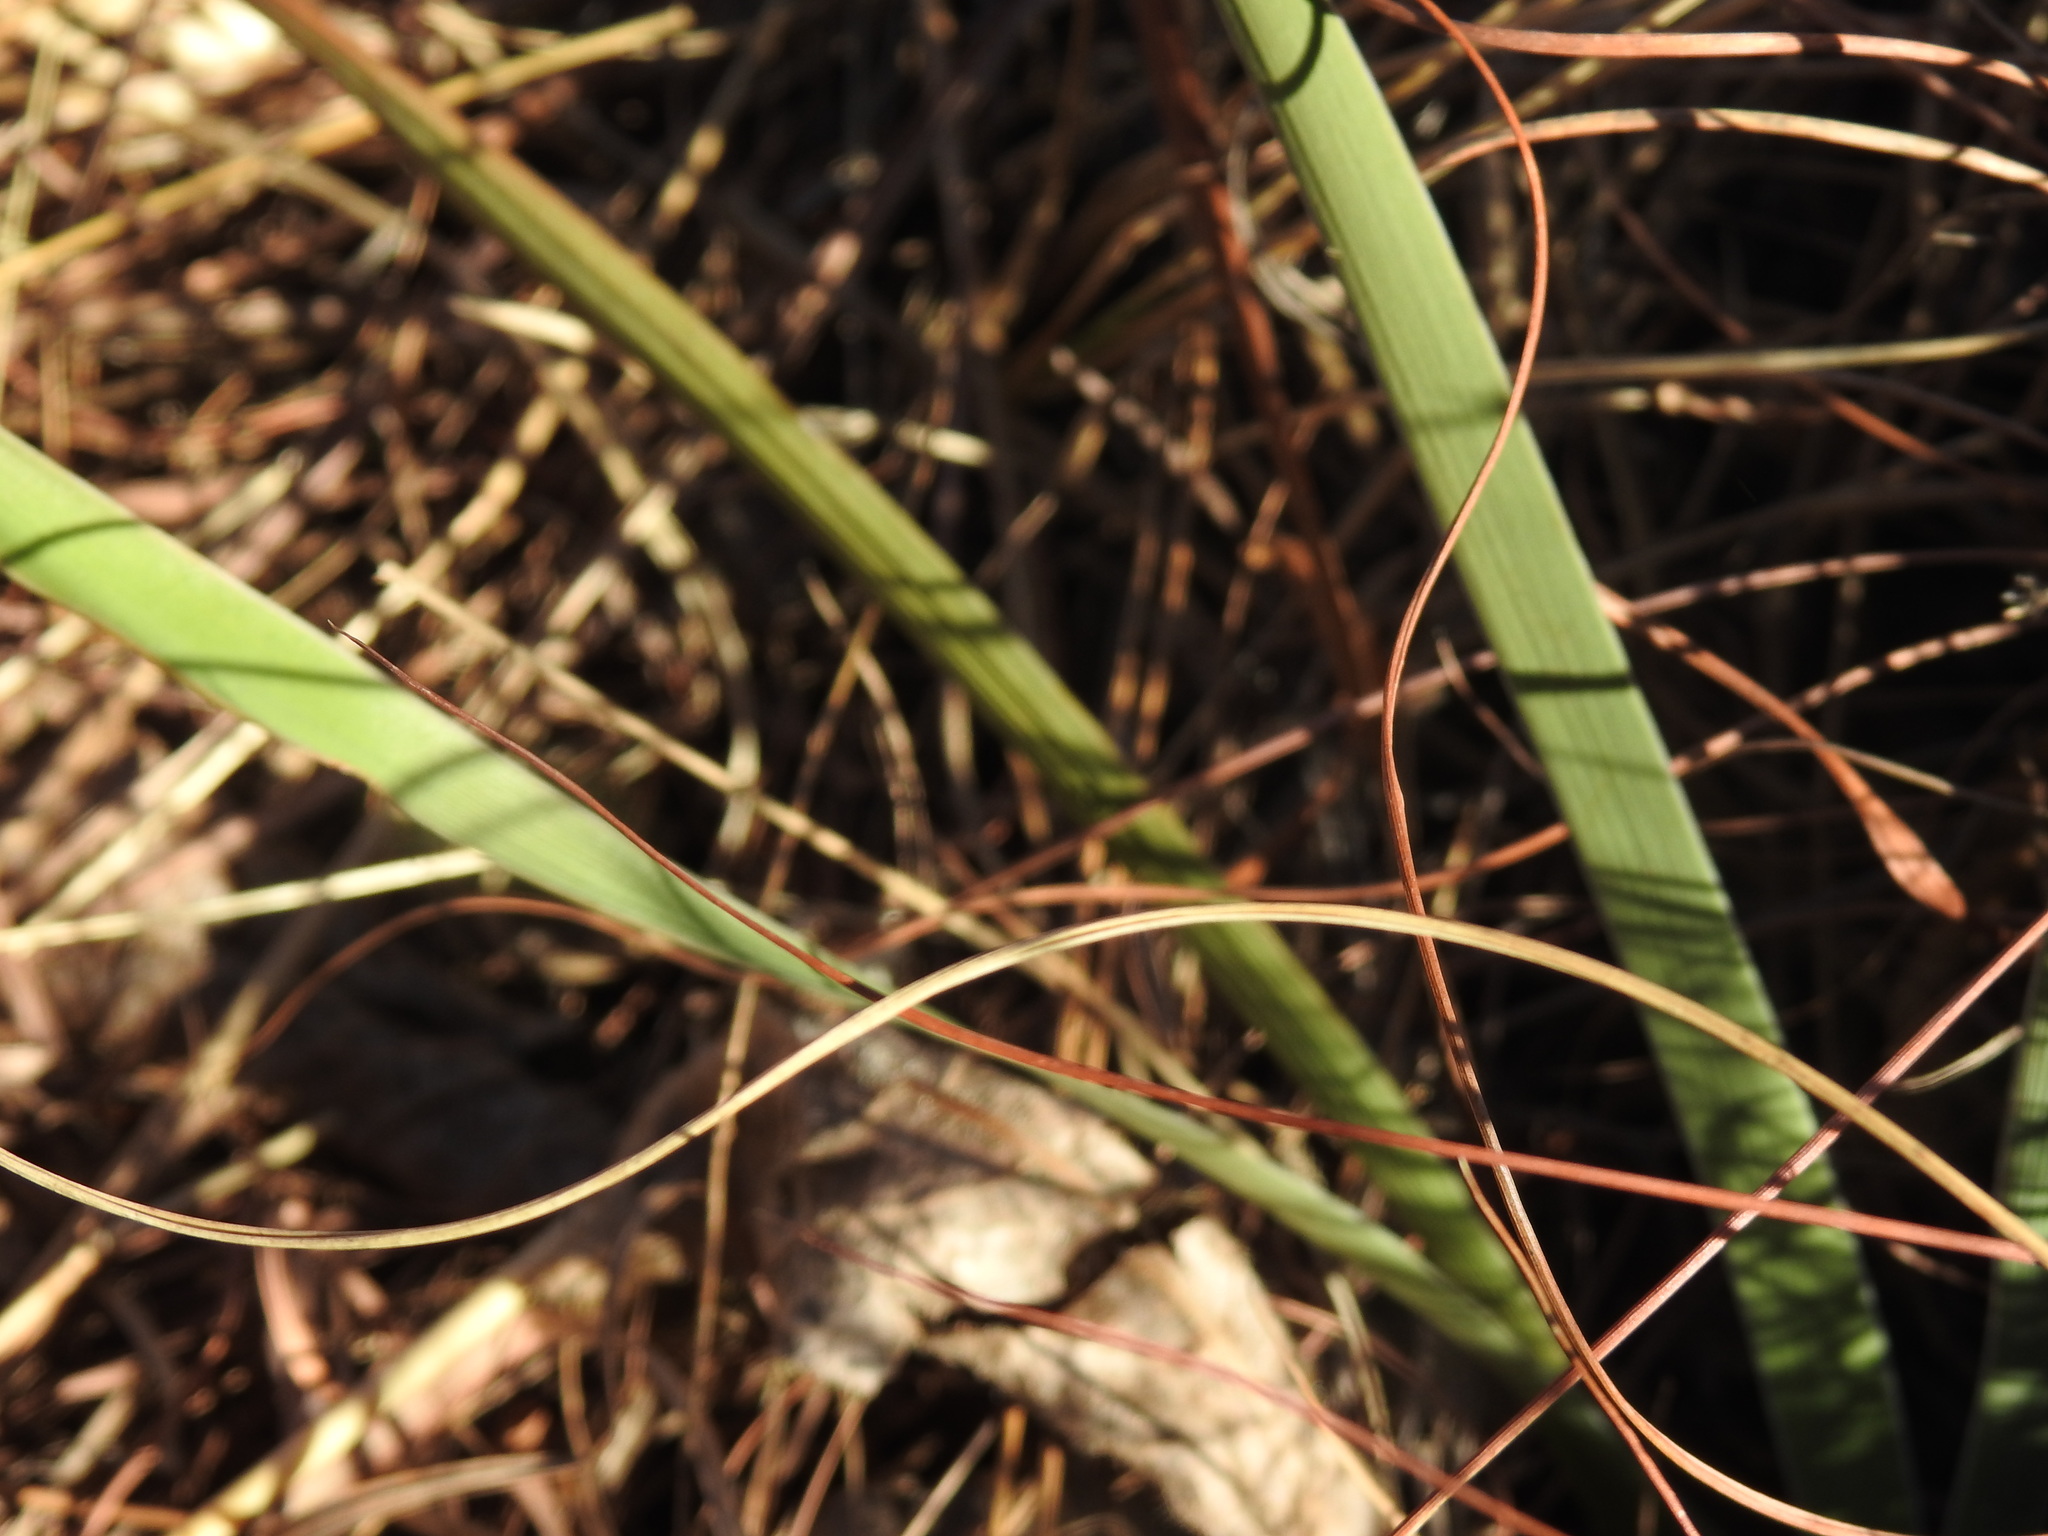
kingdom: Plantae
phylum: Tracheophyta
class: Liliopsida
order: Asparagales
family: Iridaceae
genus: Aristea
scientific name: Aristea torulosa
